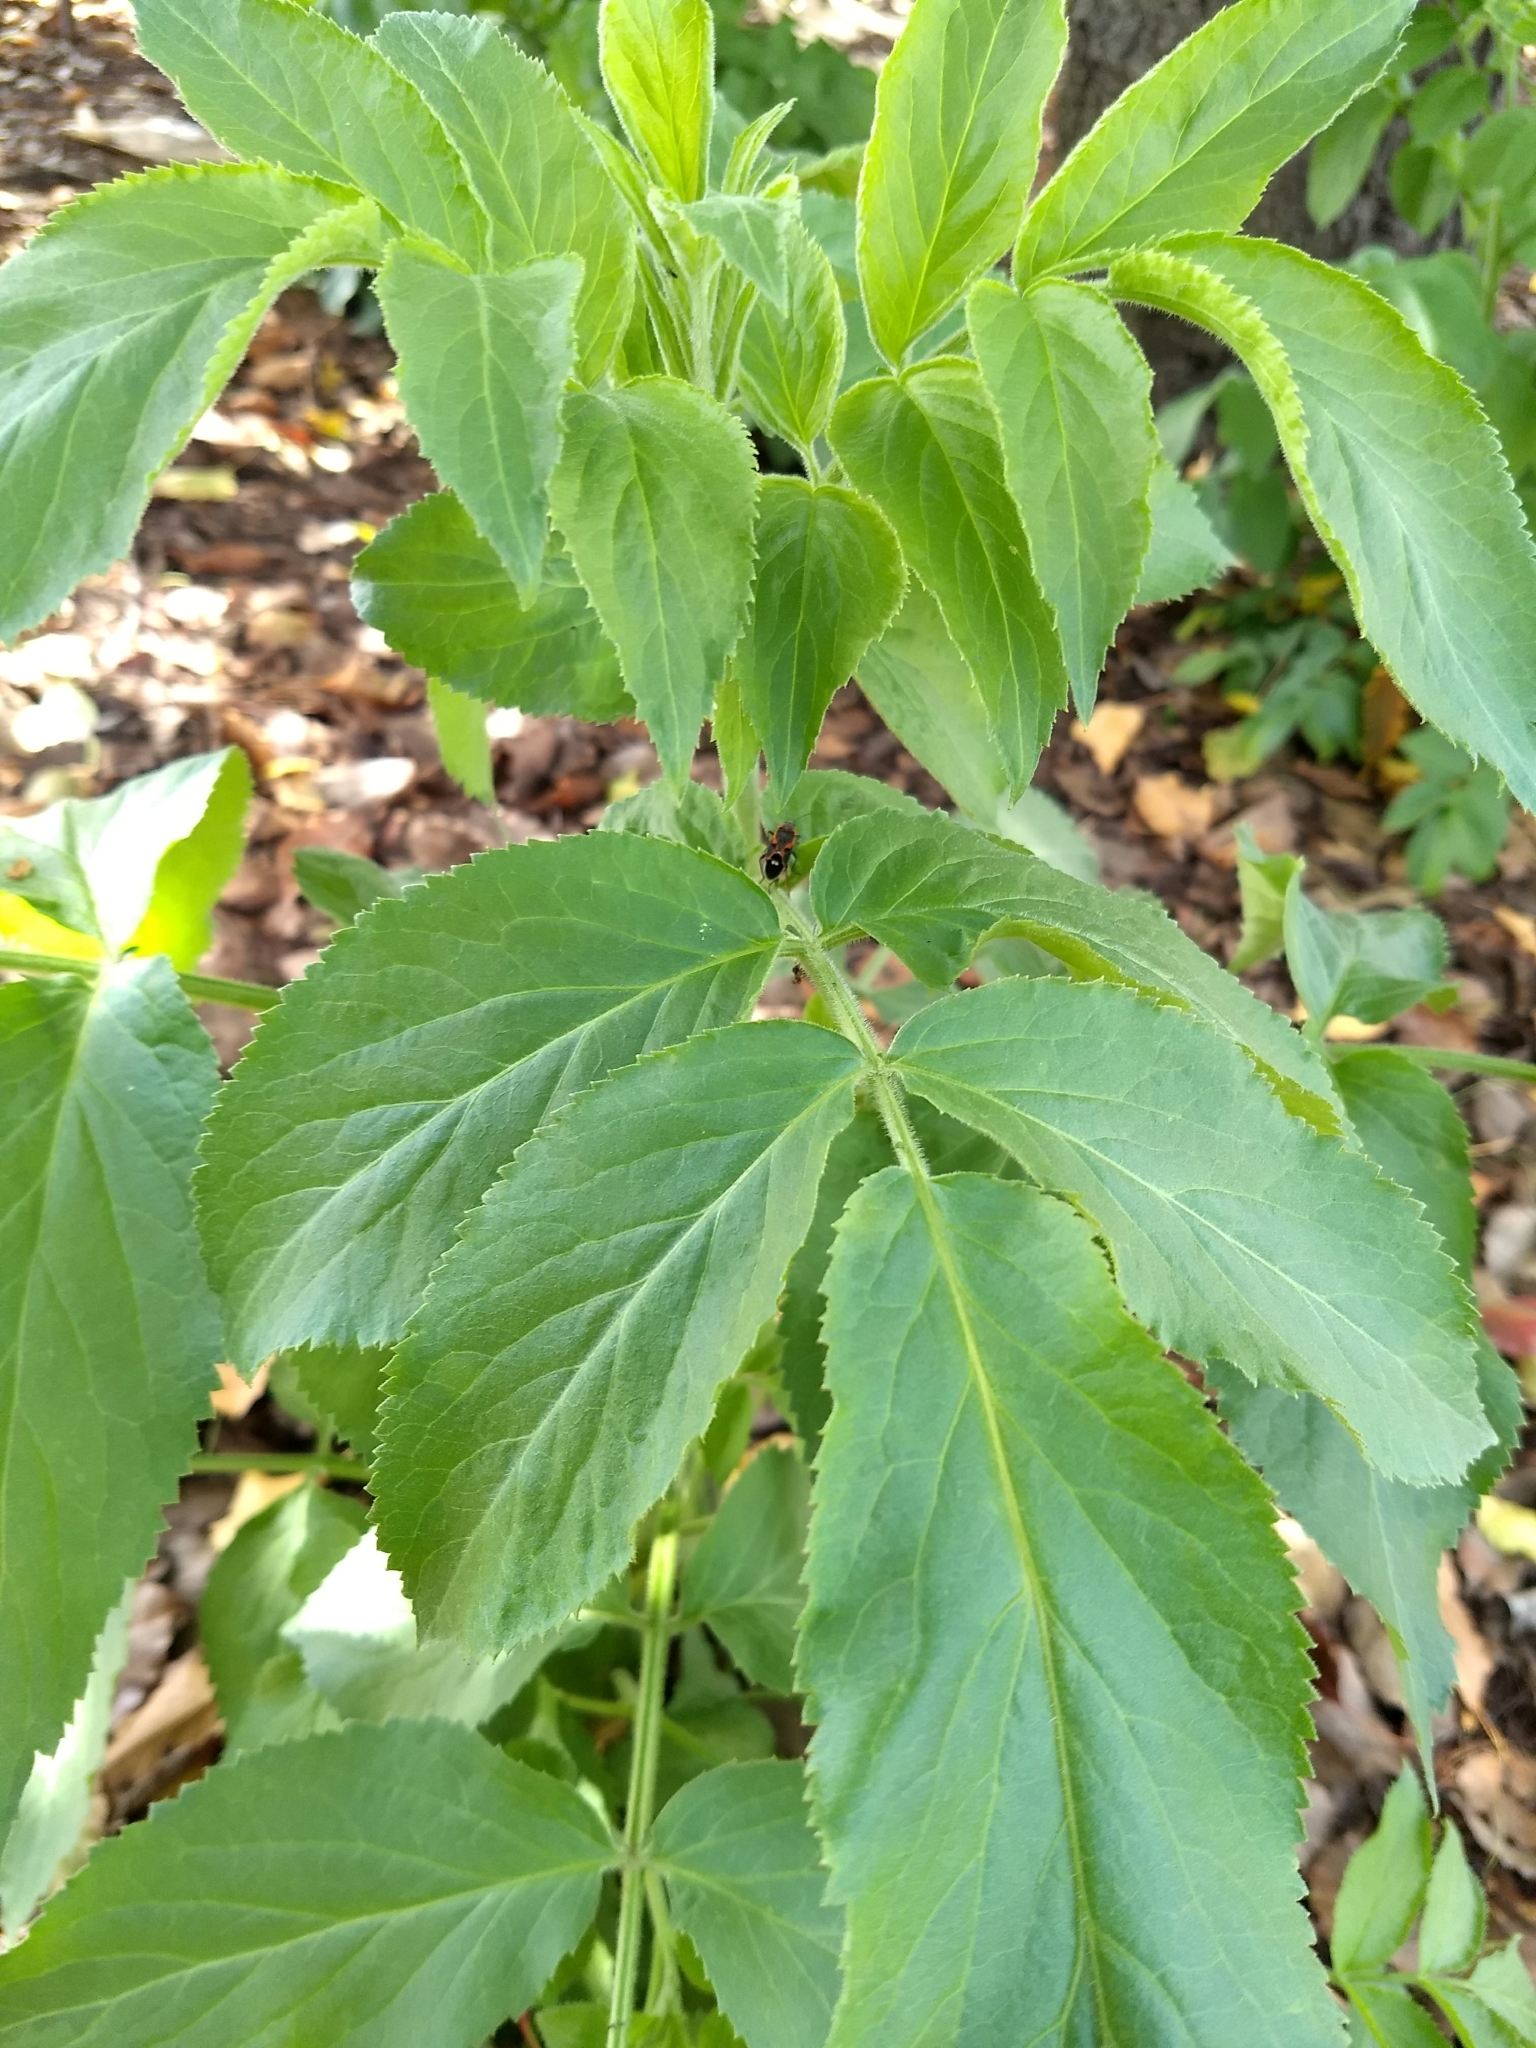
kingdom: Plantae
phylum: Tracheophyta
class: Magnoliopsida
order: Dipsacales
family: Viburnaceae
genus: Sambucus
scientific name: Sambucus cerulea
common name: Blue elder
